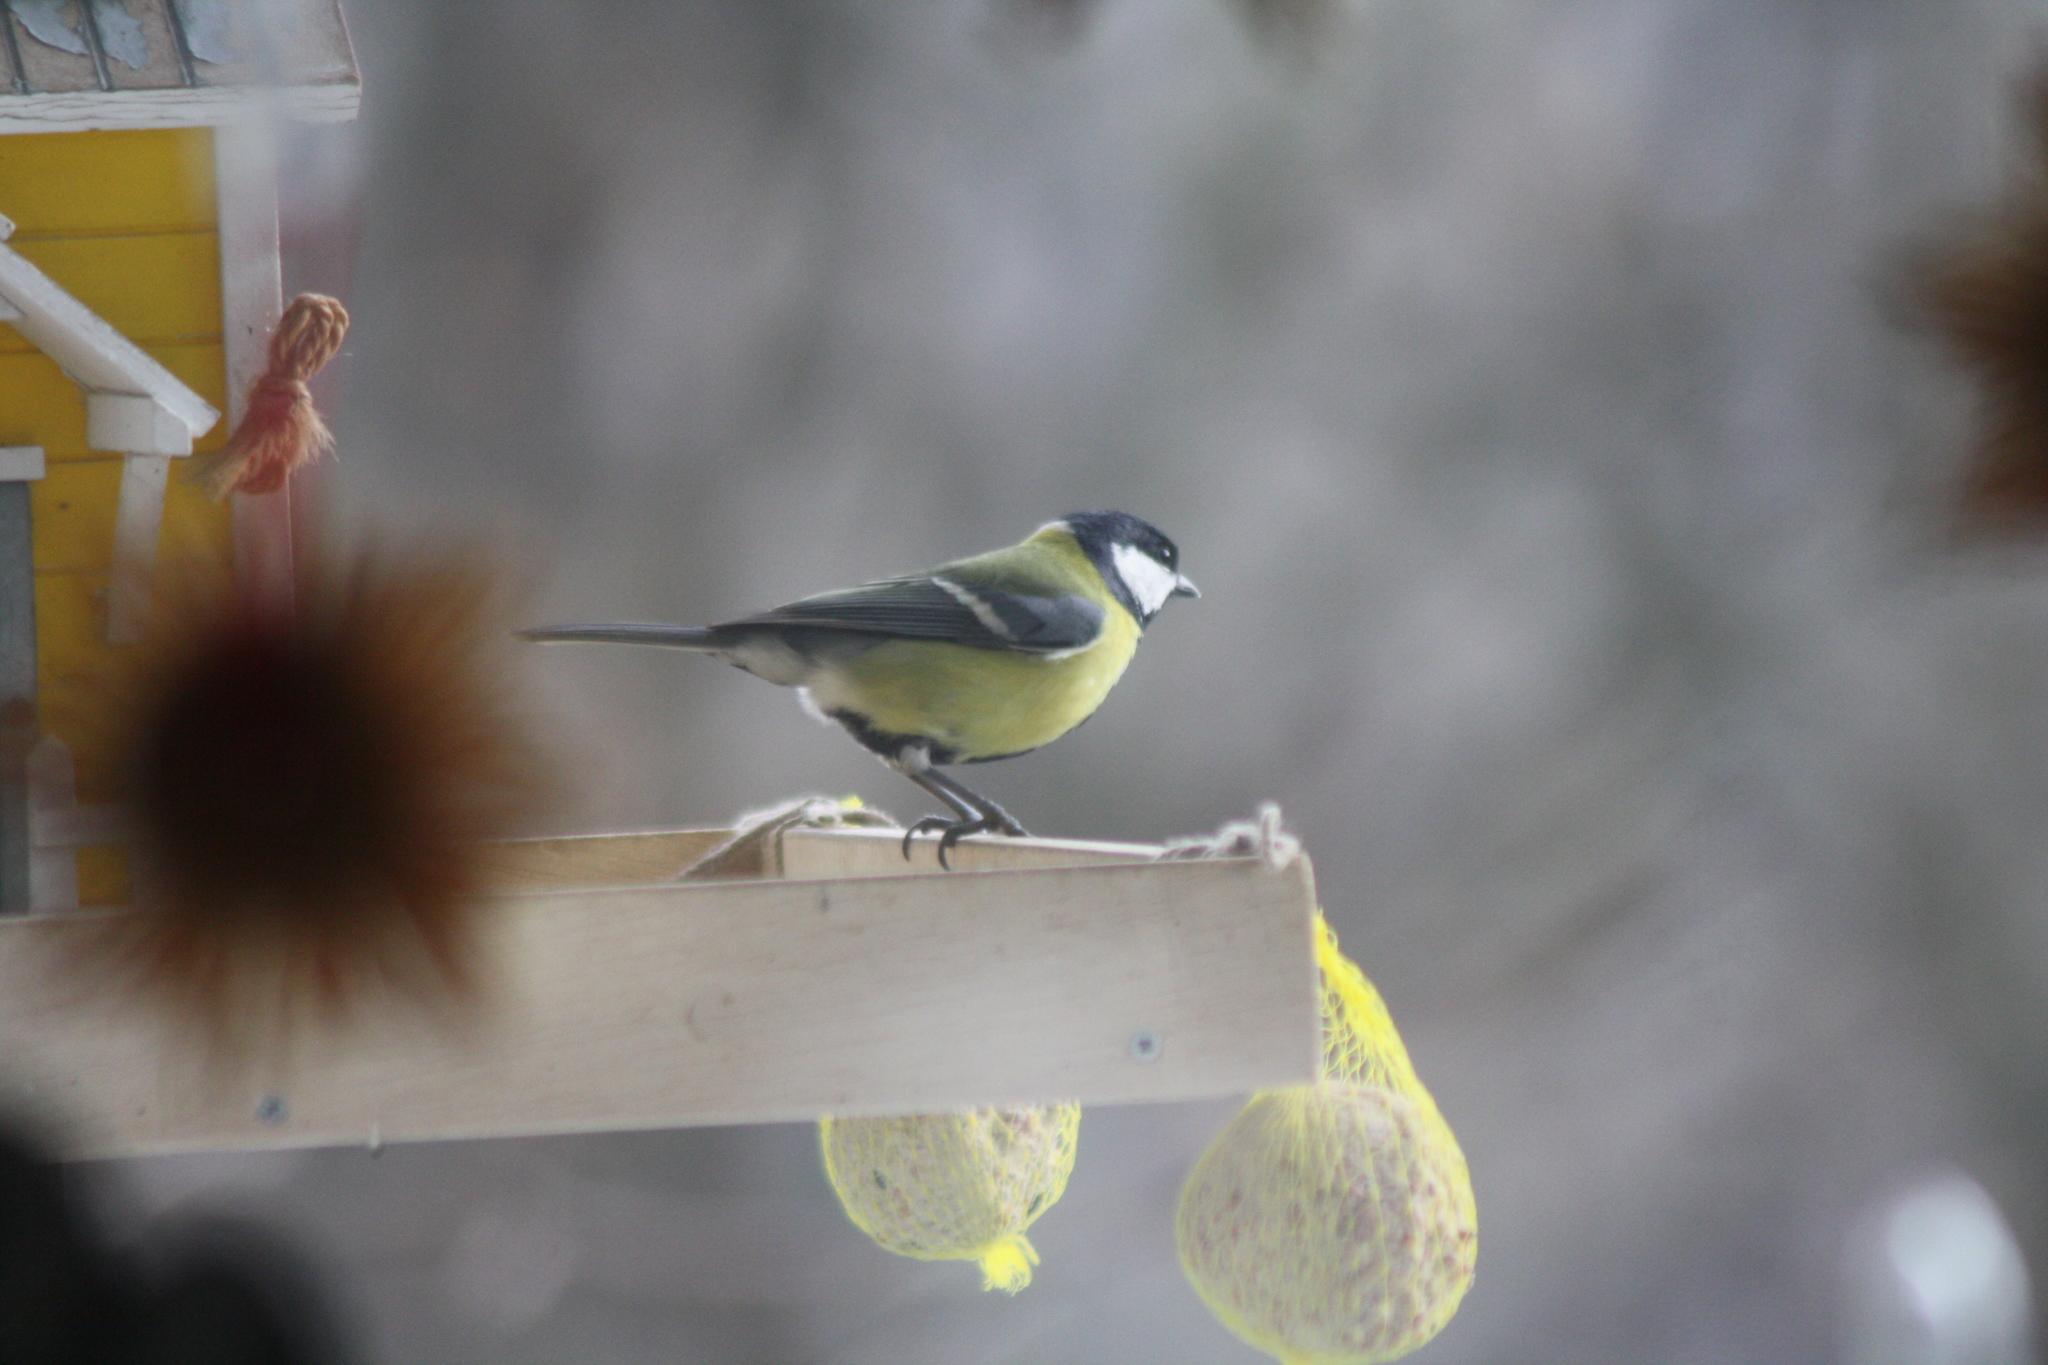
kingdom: Animalia
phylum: Chordata
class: Aves
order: Passeriformes
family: Paridae
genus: Parus
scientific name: Parus major
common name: Great tit
